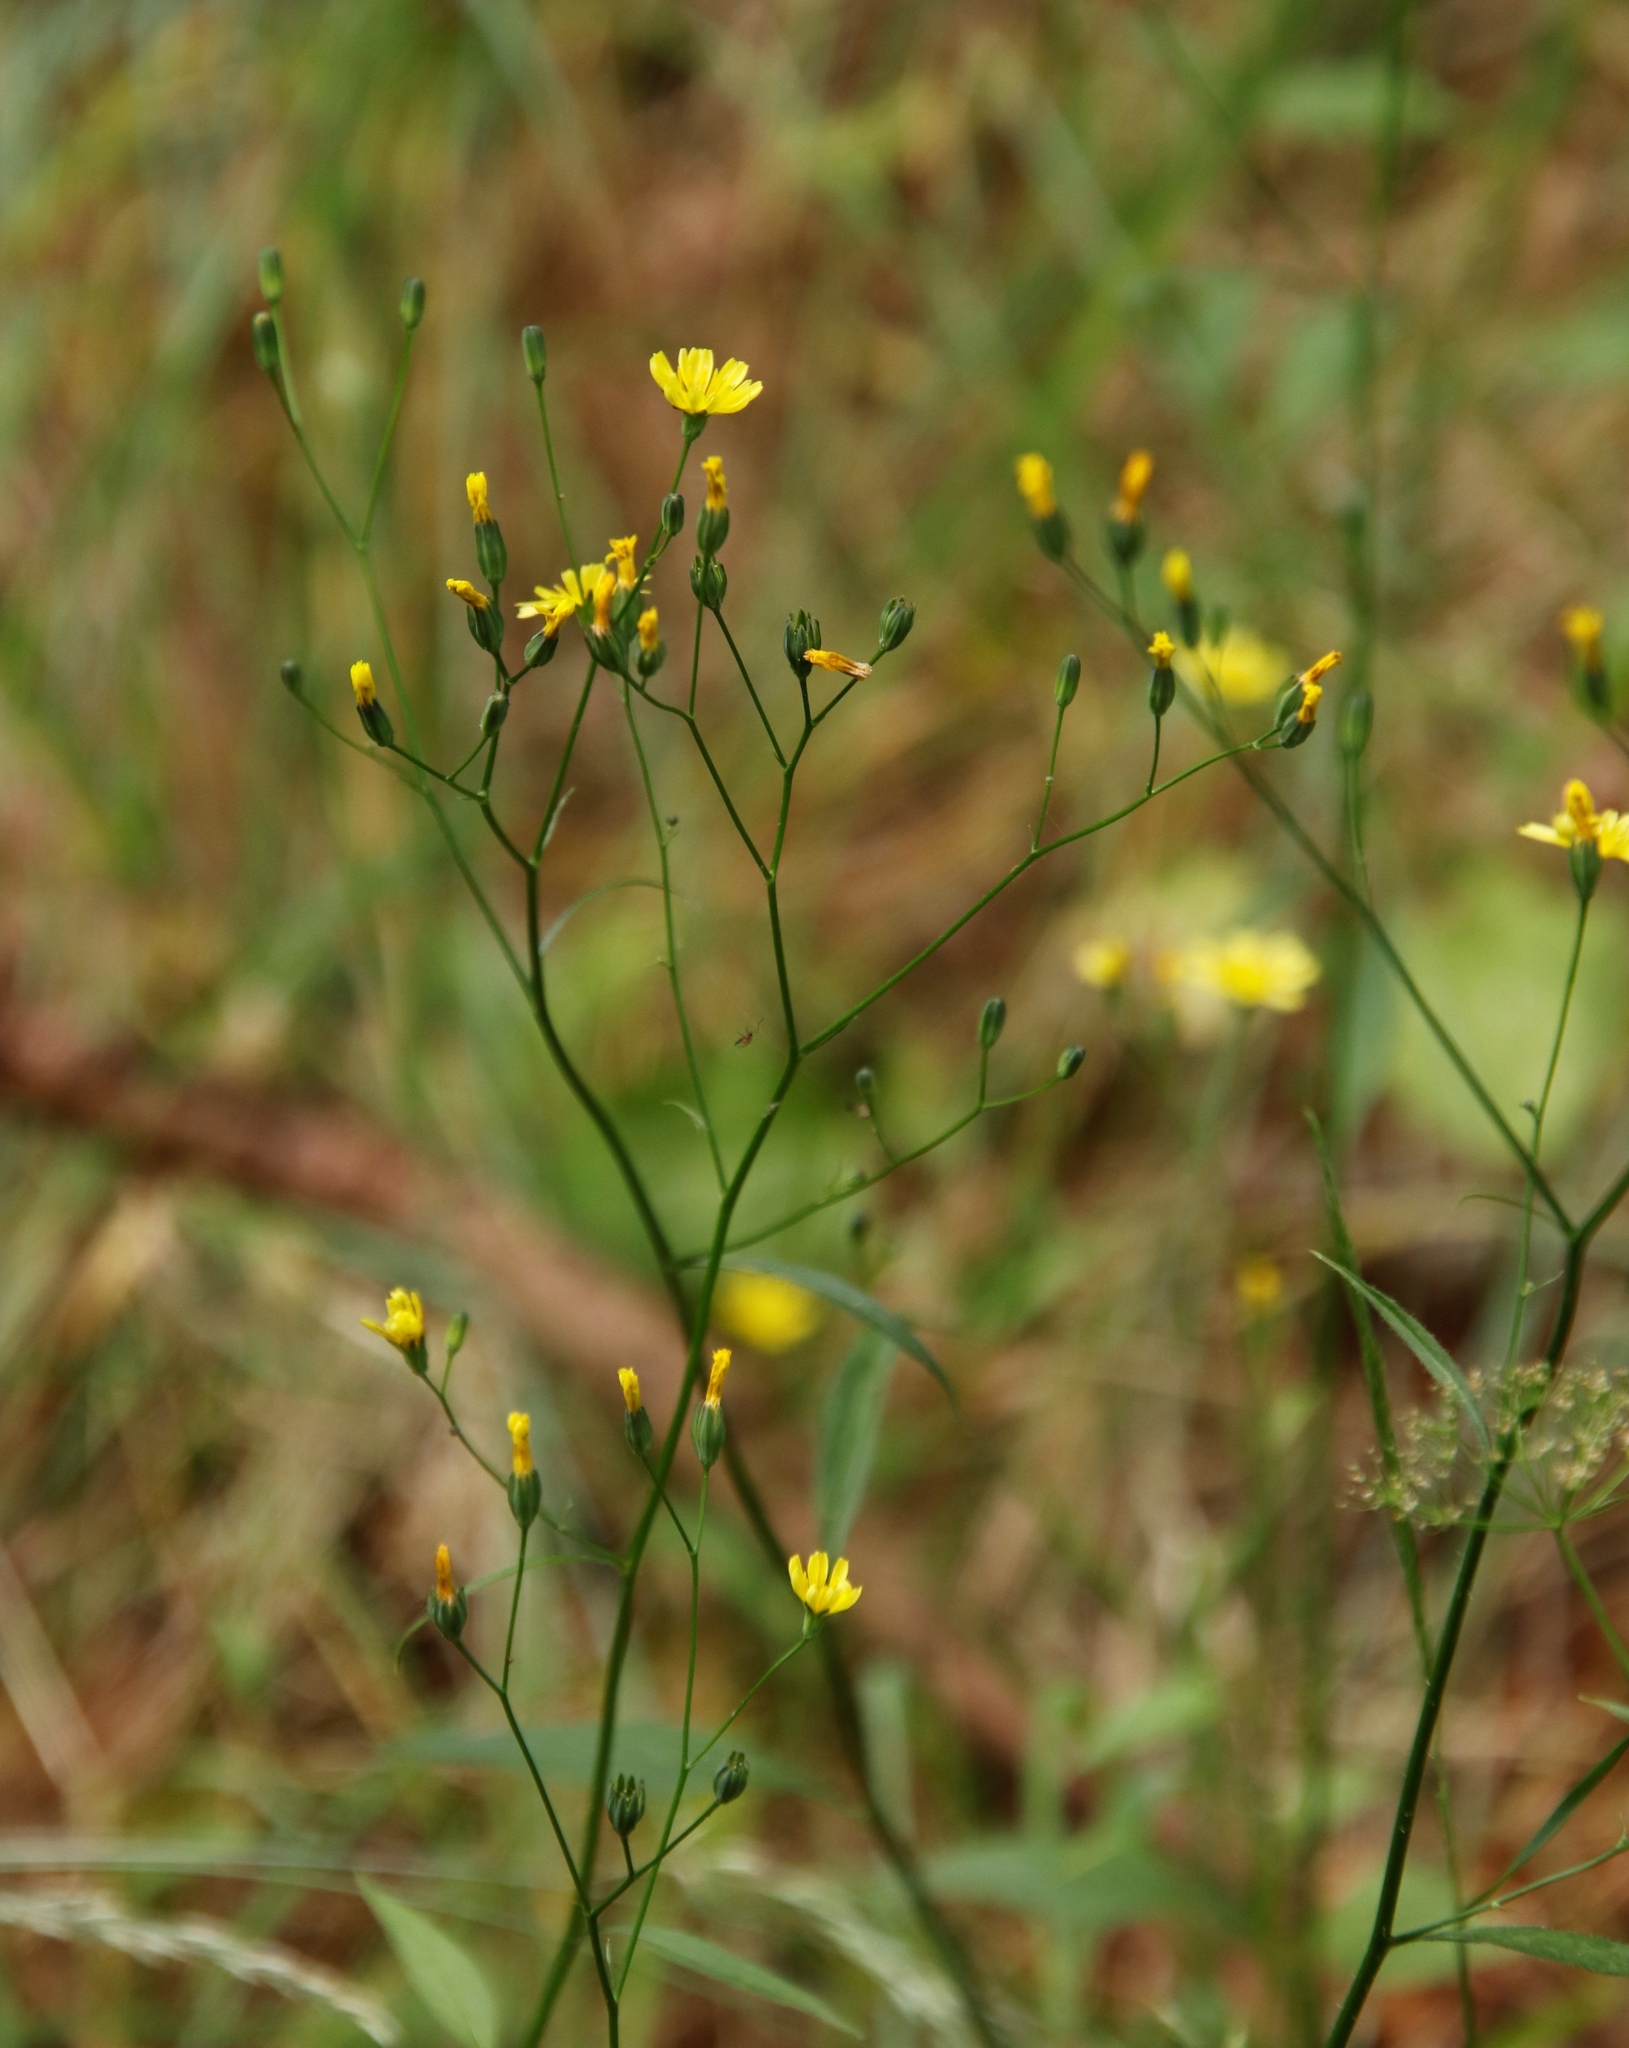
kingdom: Plantae
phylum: Tracheophyta
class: Magnoliopsida
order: Asterales
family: Asteraceae
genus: Lapsana
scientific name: Lapsana communis
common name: Nipplewort
